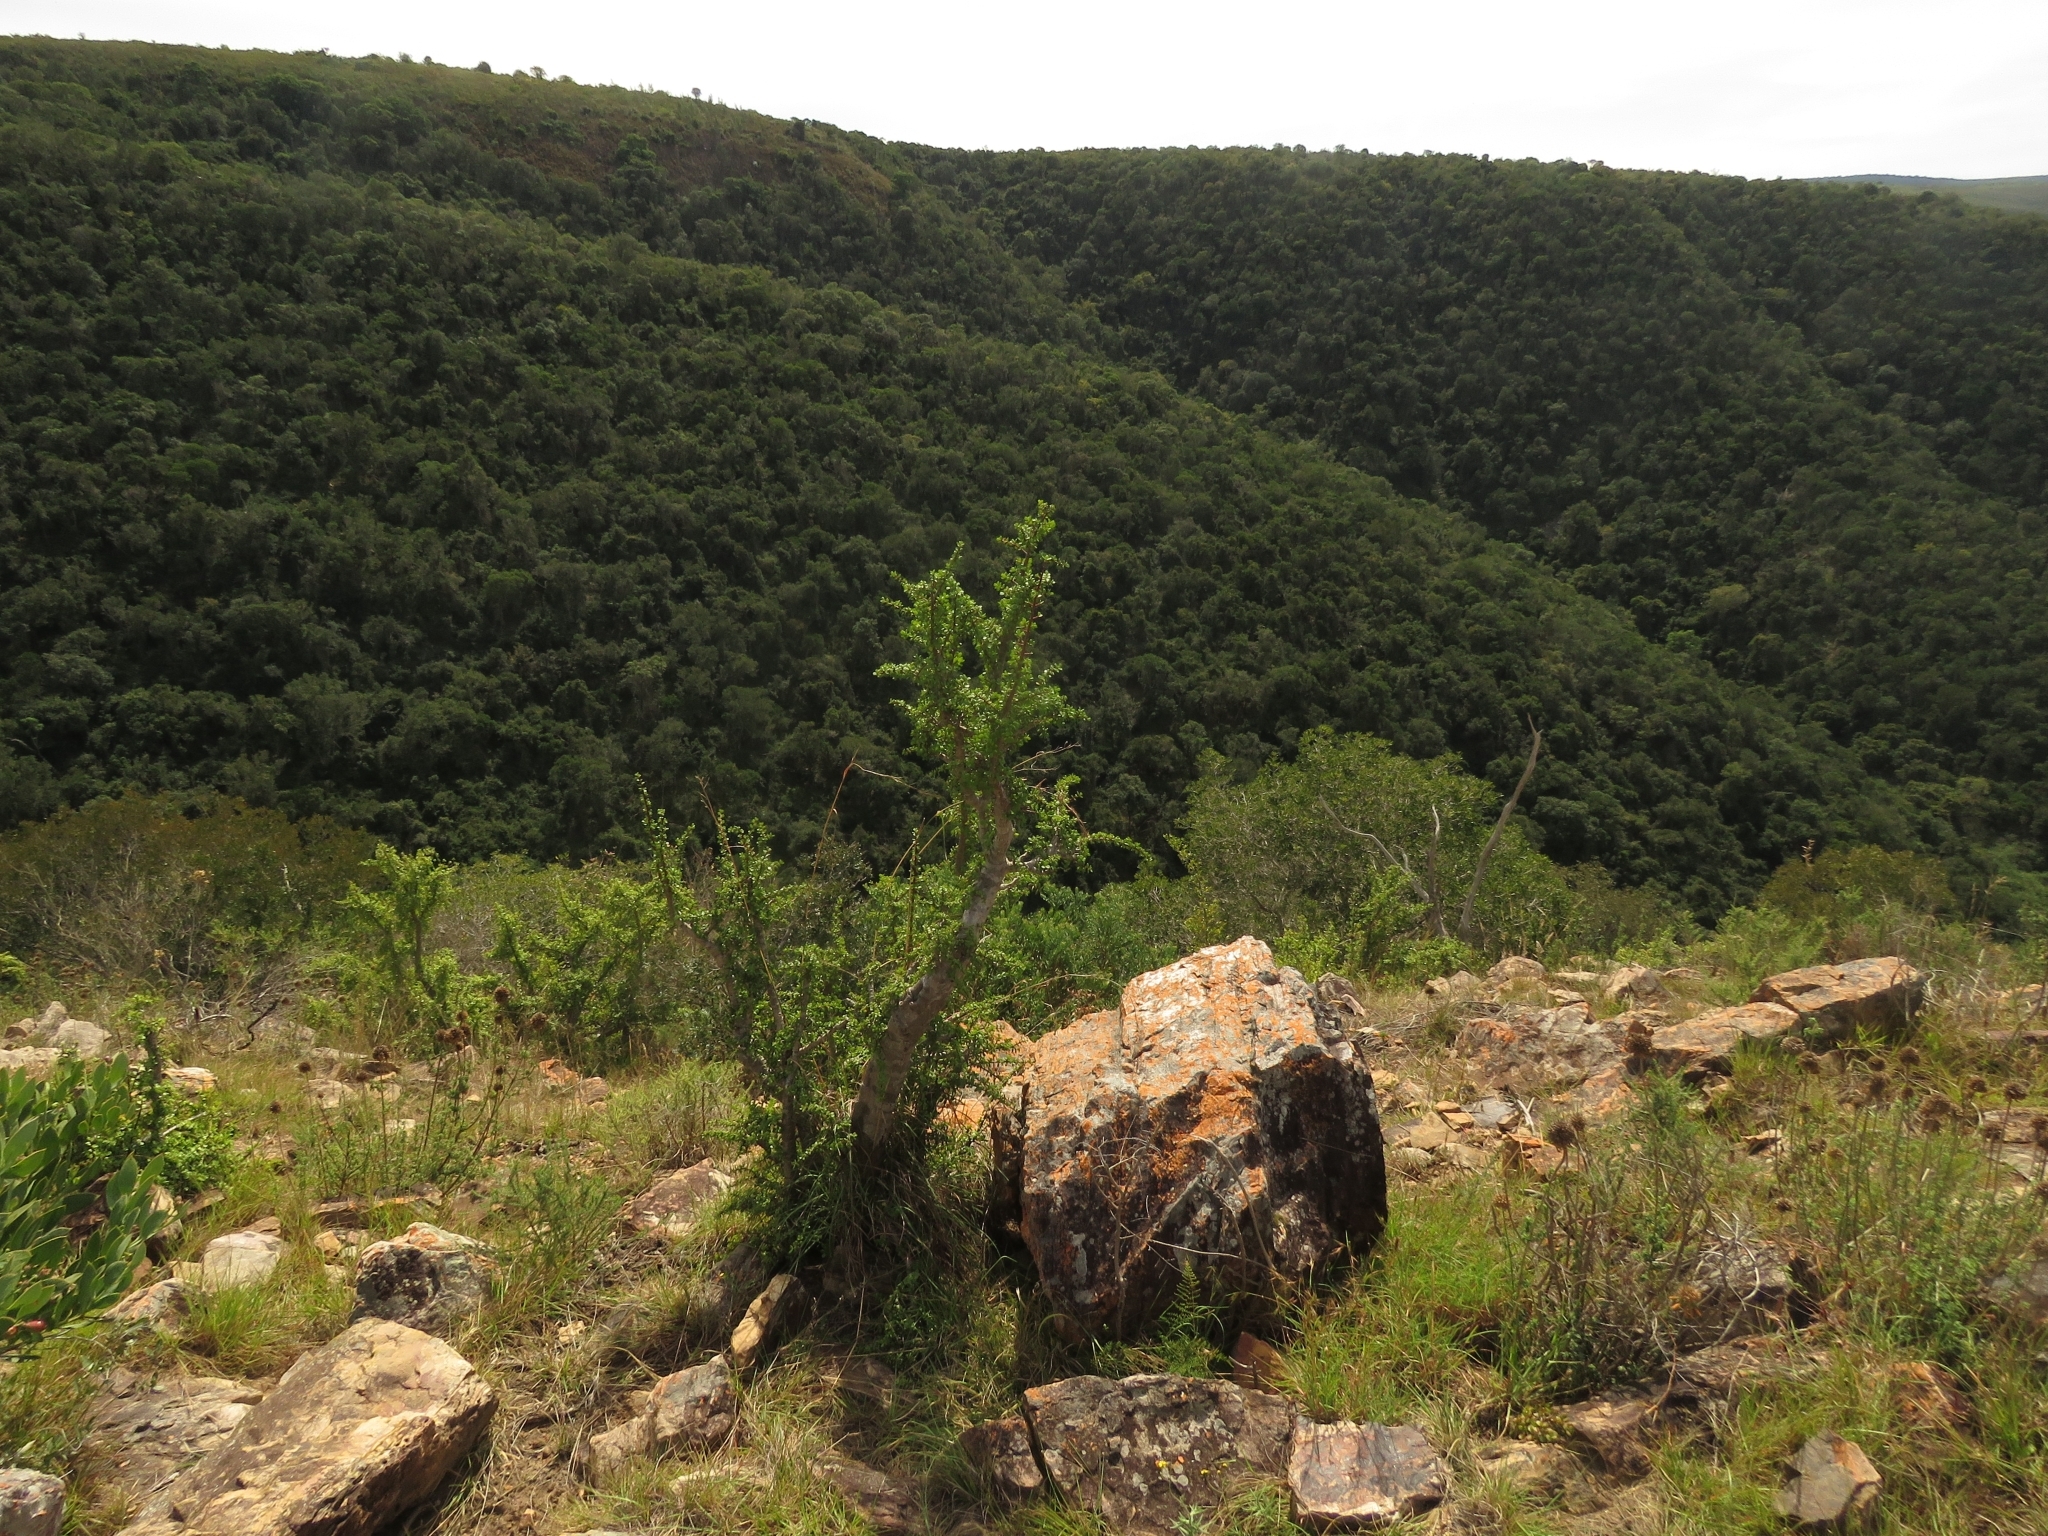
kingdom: Plantae
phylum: Tracheophyta
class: Magnoliopsida
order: Caryophyllales
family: Didiereaceae
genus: Portulacaria
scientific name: Portulacaria afra
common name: Elephant-bush
